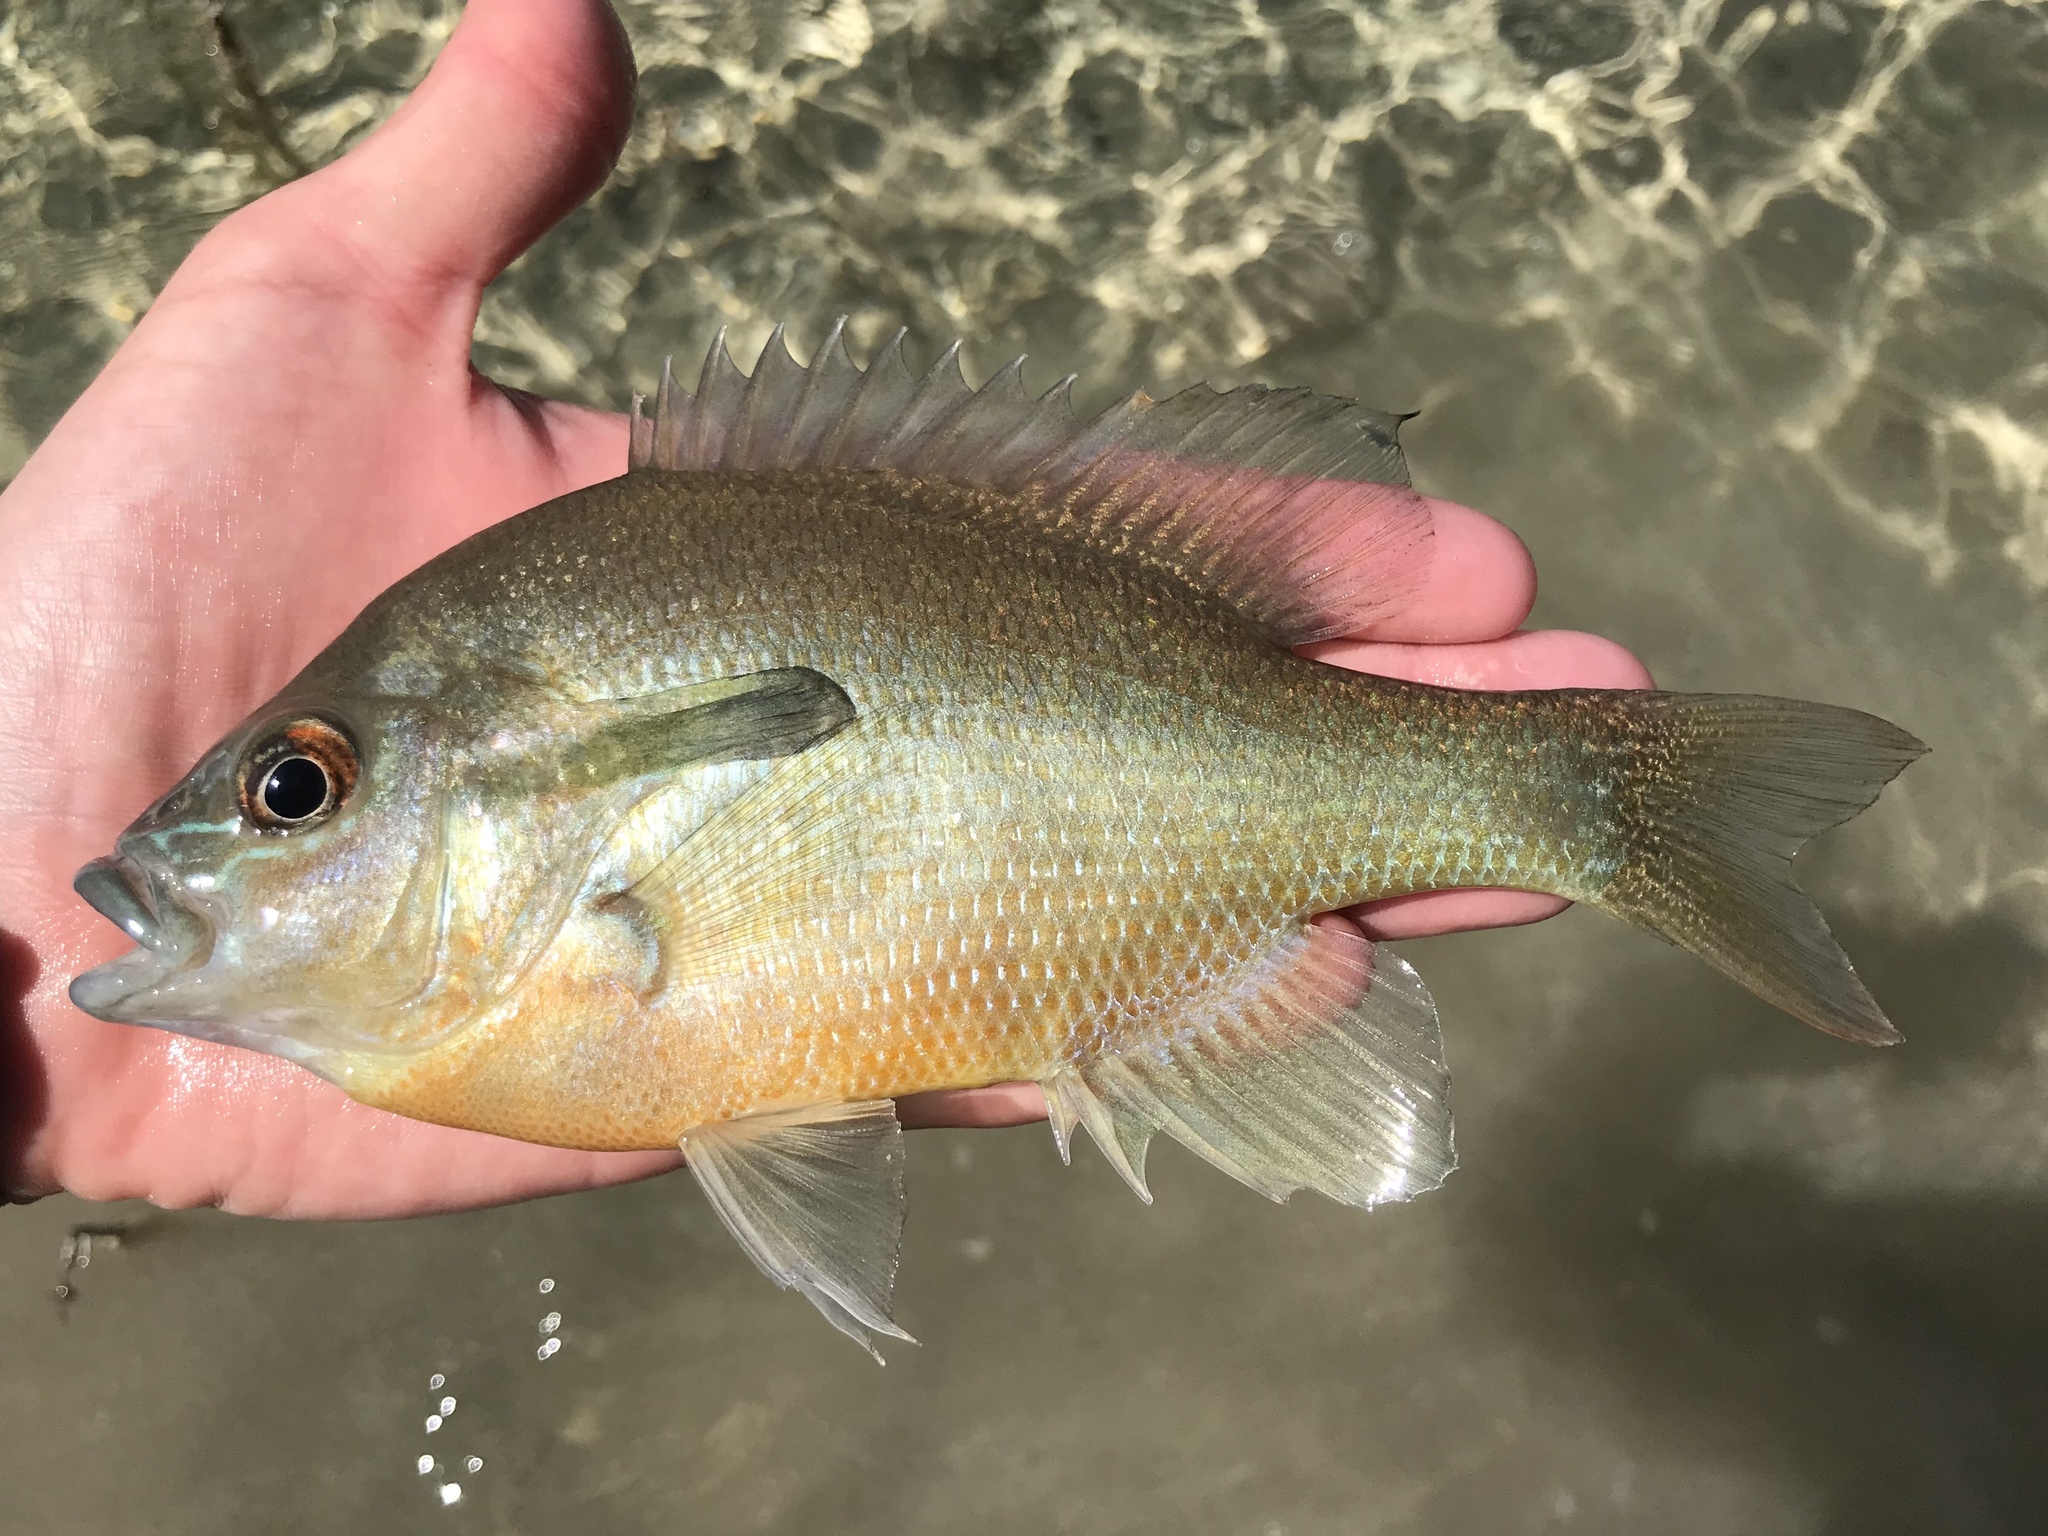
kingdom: Animalia
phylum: Chordata
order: Perciformes
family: Centrarchidae
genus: Lepomis
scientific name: Lepomis auritus
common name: Redbreast sunfish
